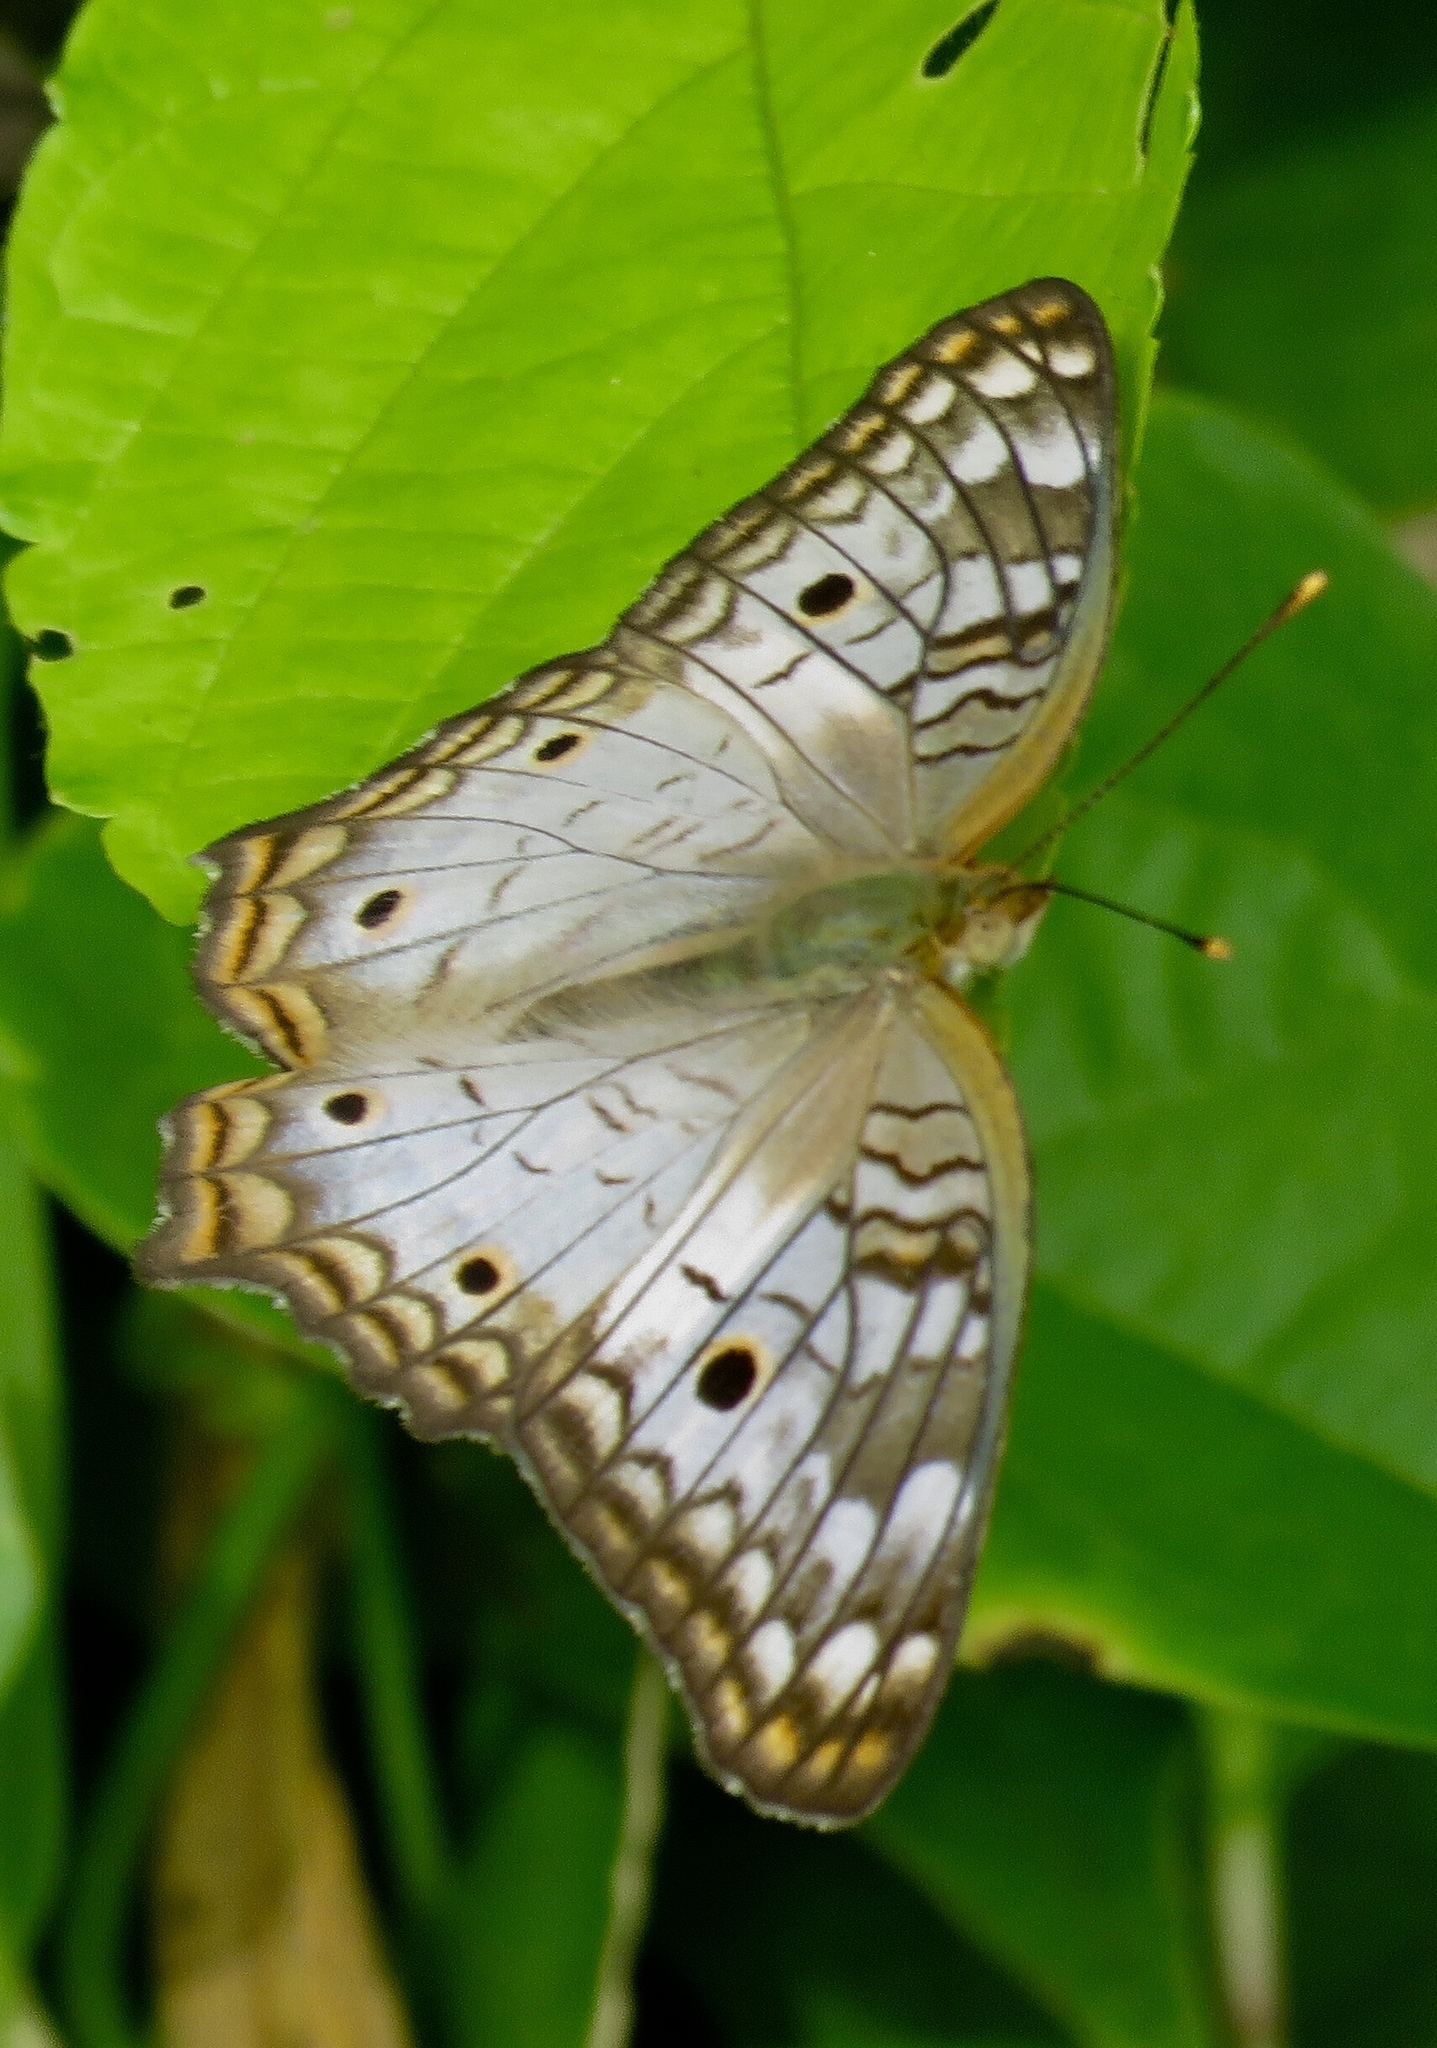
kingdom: Animalia
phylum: Arthropoda
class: Insecta
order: Lepidoptera
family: Nymphalidae
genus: Anartia
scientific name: Anartia jatrophae
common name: White peacock
